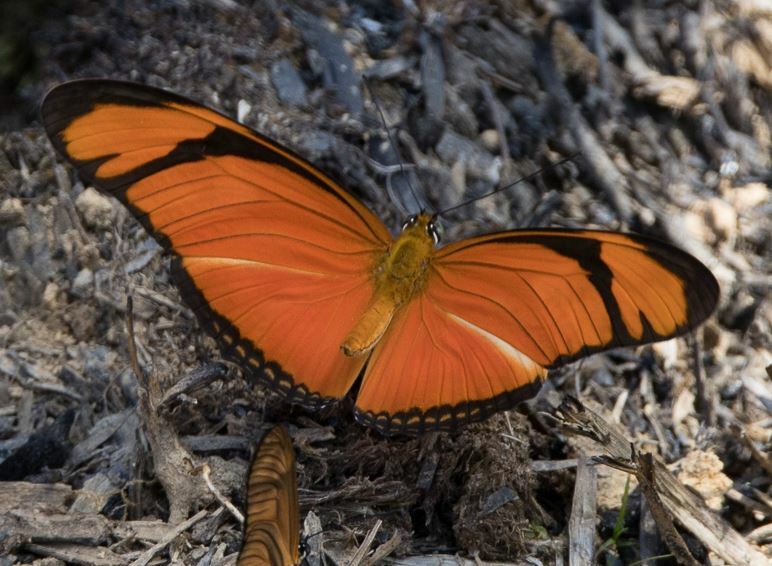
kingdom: Animalia
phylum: Arthropoda
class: Insecta
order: Lepidoptera
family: Nymphalidae
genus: Dryas
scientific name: Dryas iulia
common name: Flambeau
